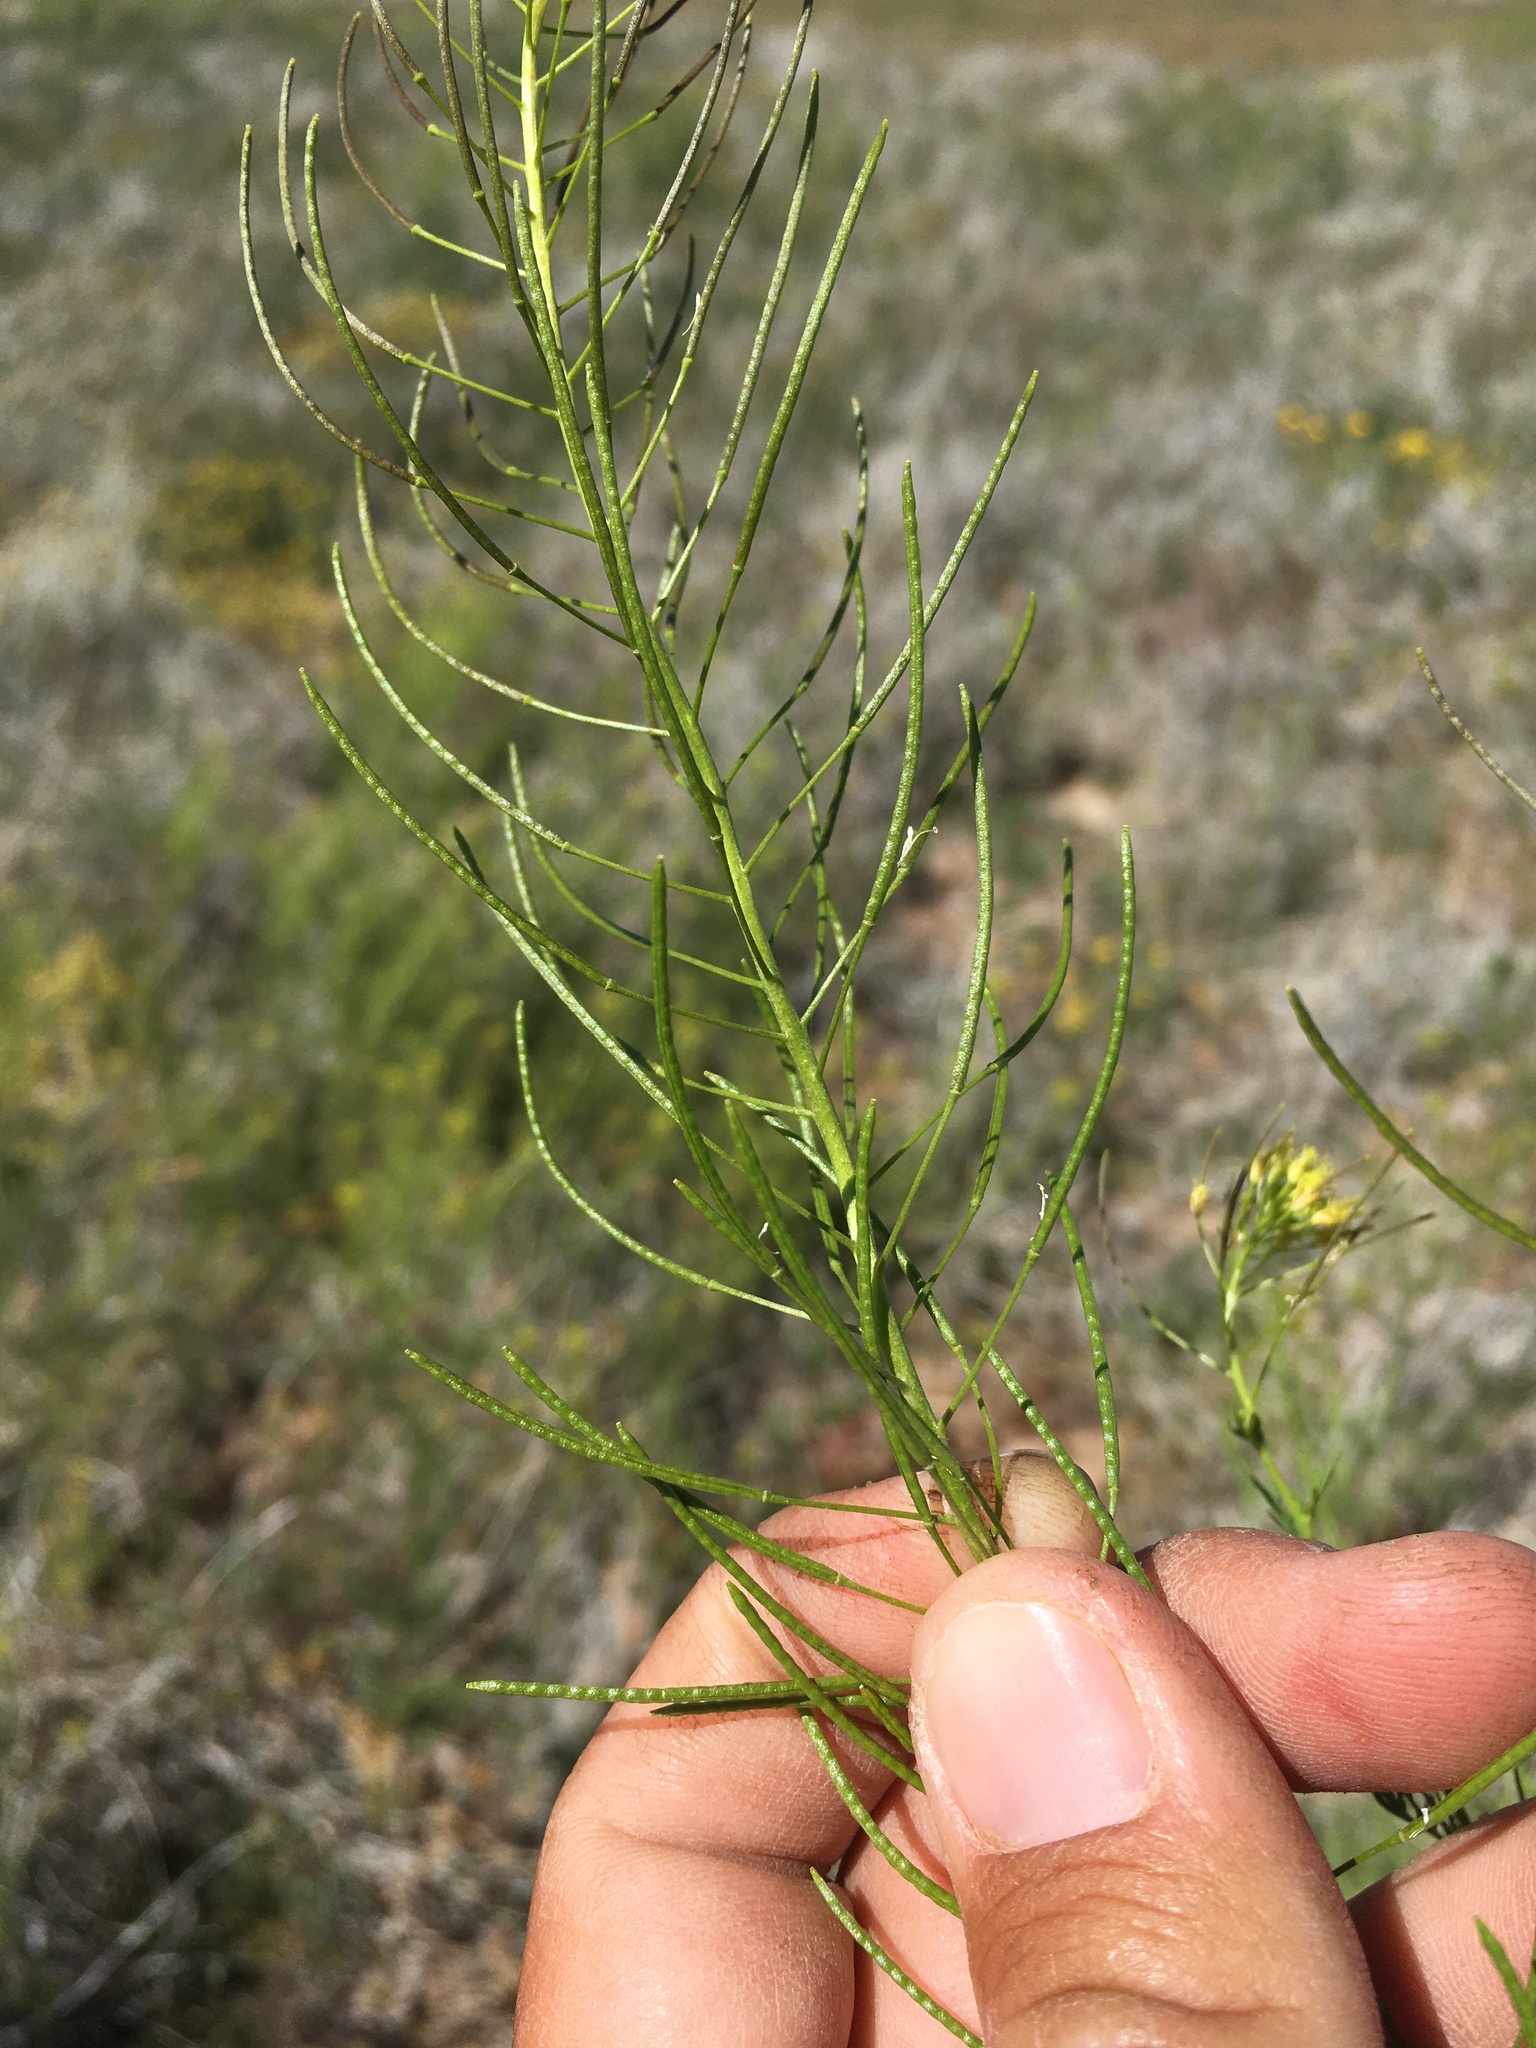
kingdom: Plantae
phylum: Tracheophyta
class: Magnoliopsida
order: Brassicales
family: Brassicaceae
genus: Descurainia
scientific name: Descurainia sophia
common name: Flixweed
